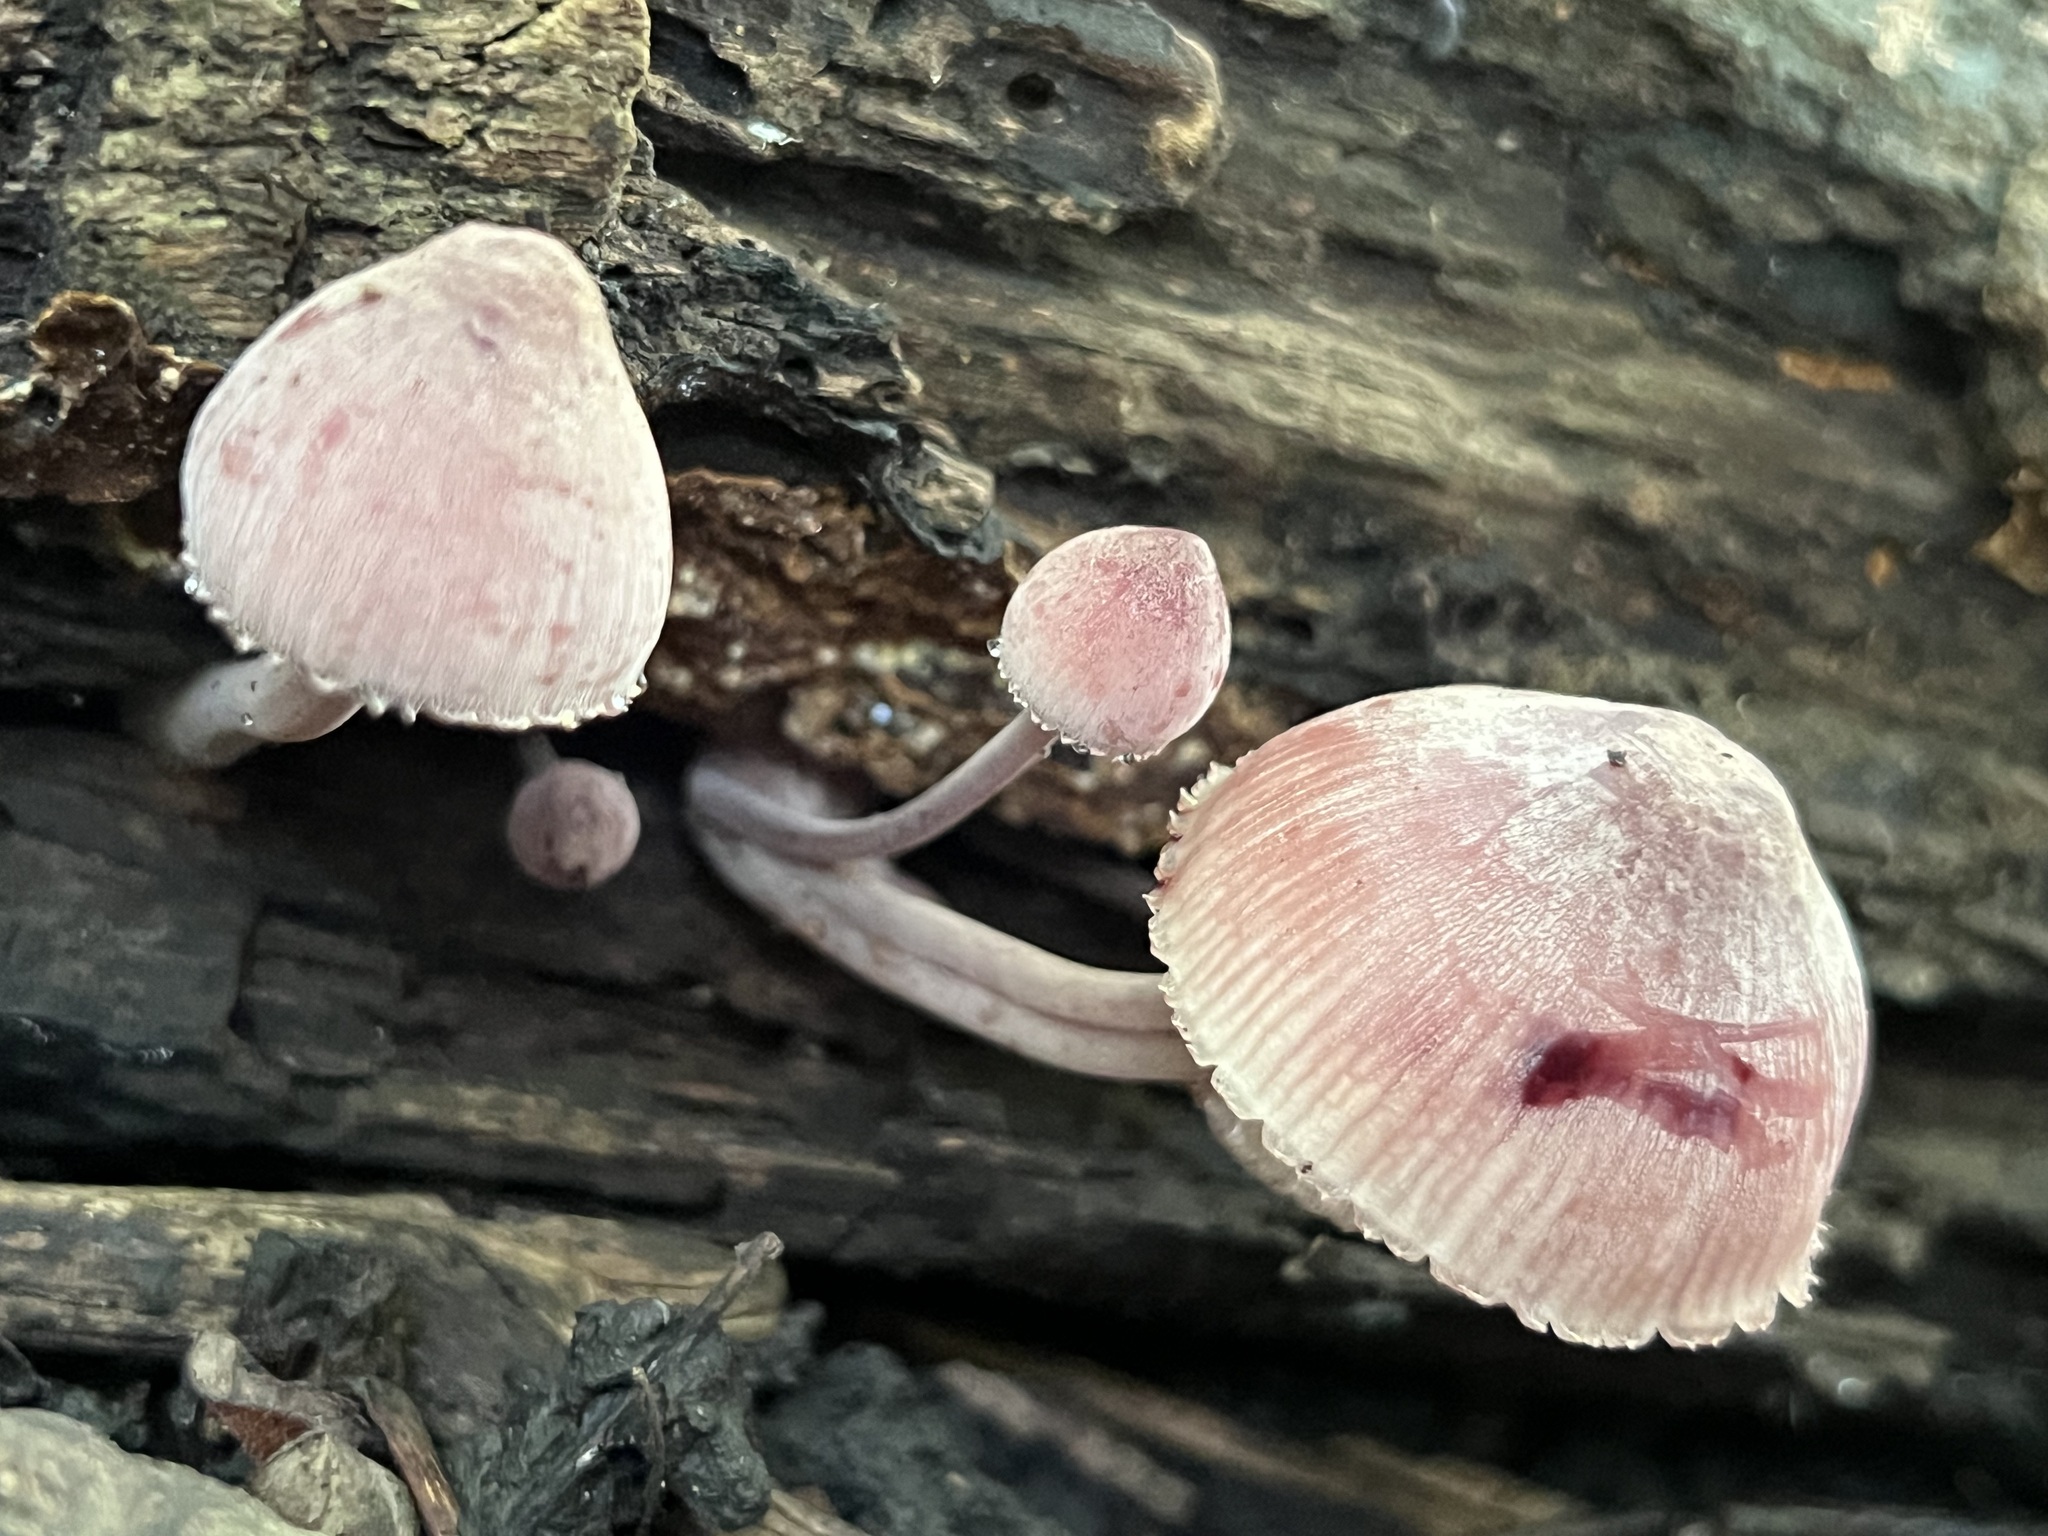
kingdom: Fungi
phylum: Basidiomycota
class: Agaricomycetes
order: Agaricales
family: Mycenaceae
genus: Mycena
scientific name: Mycena haematopus
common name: Burgundydrop bonnet
